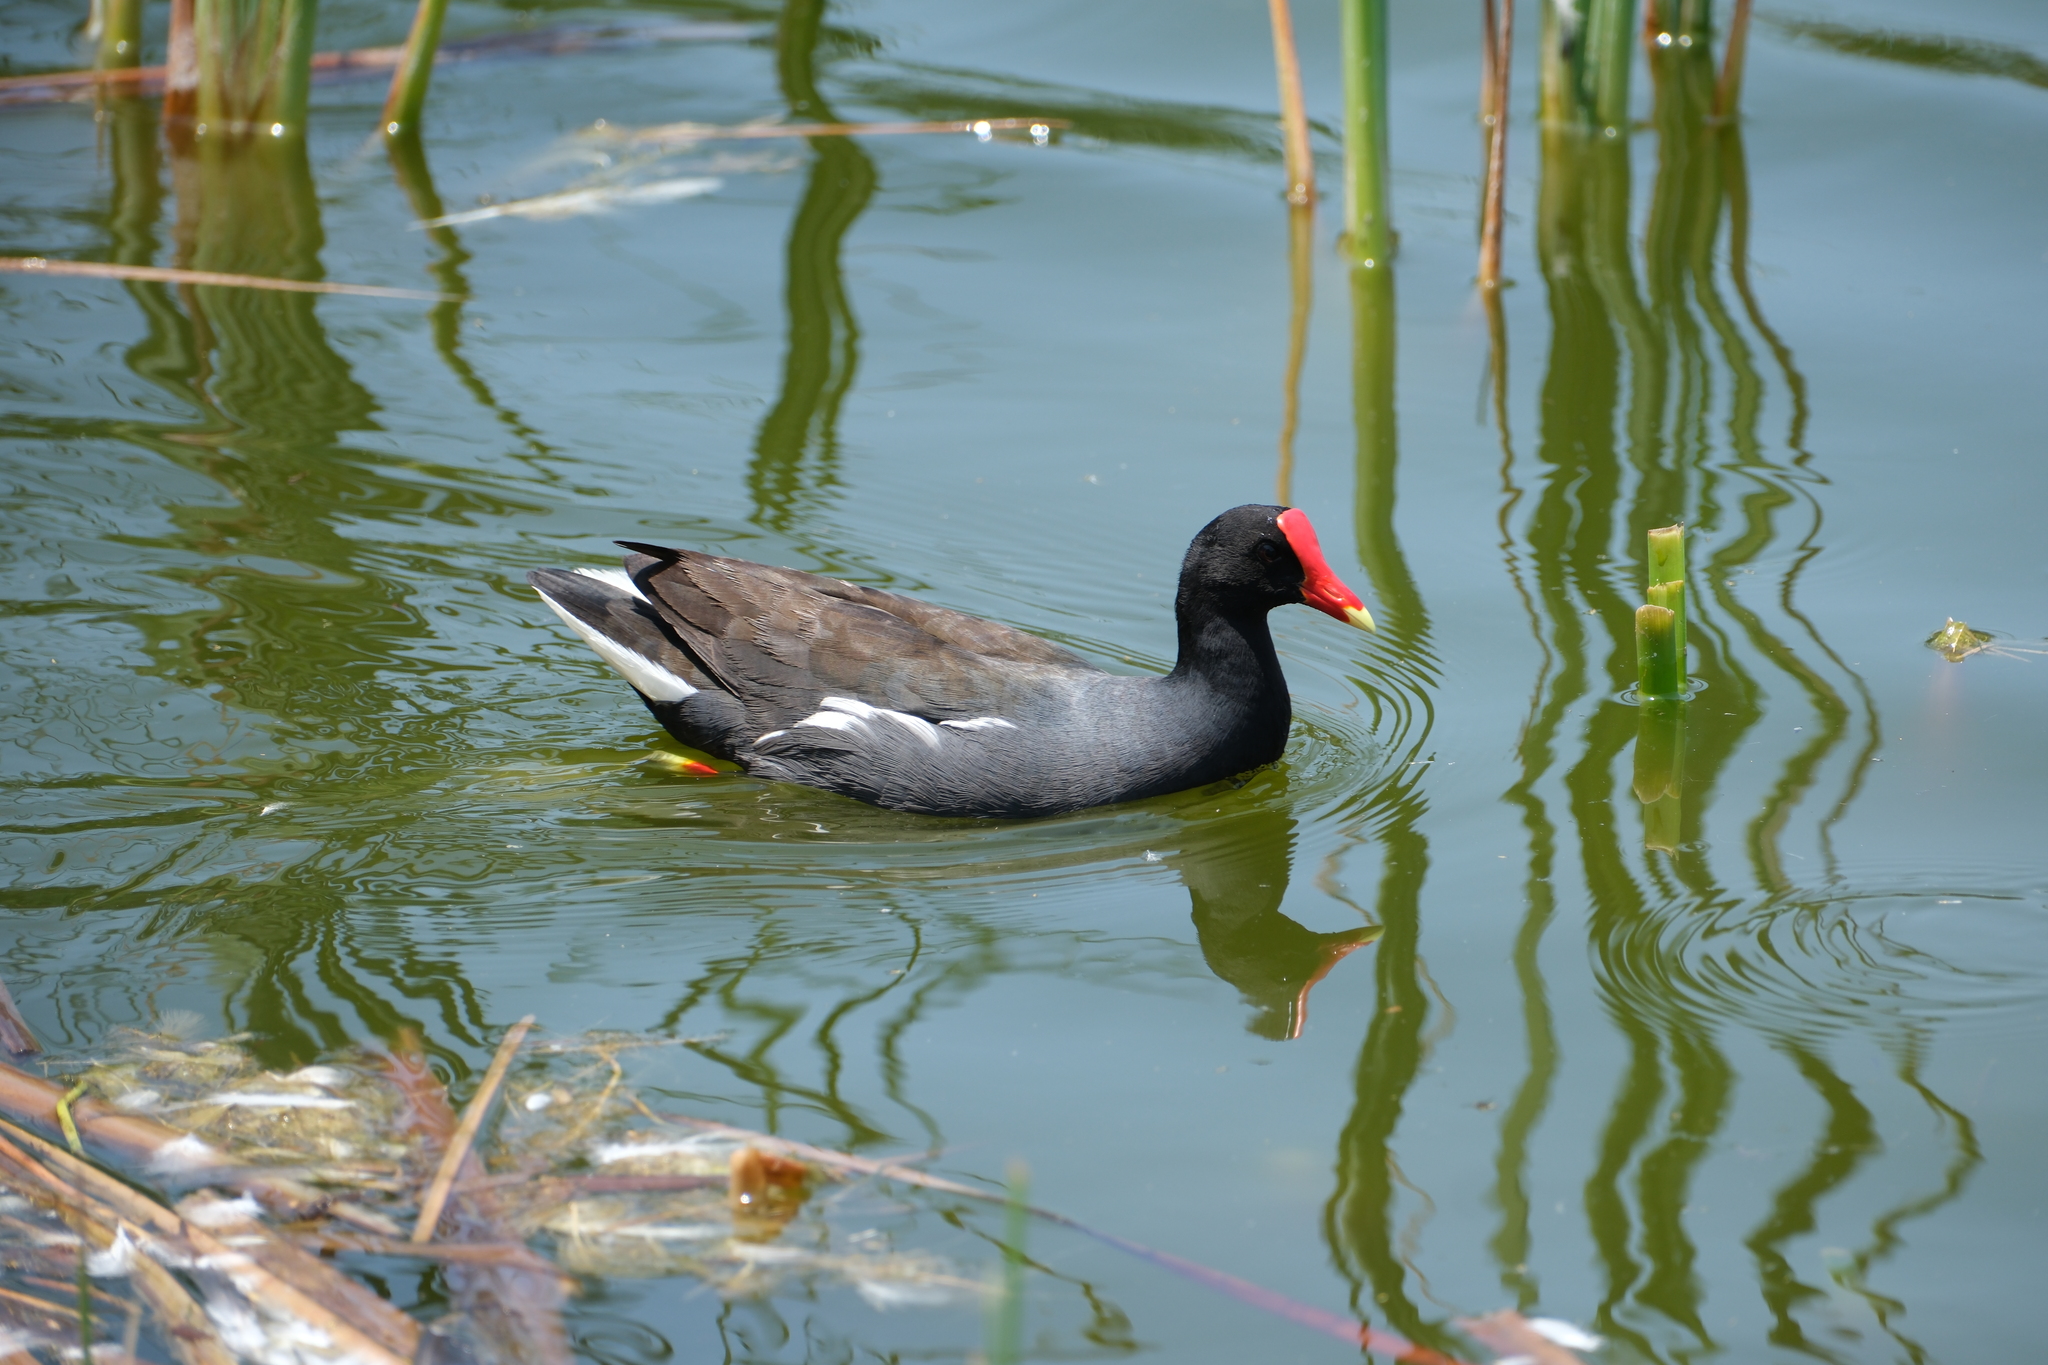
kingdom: Animalia
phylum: Chordata
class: Aves
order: Gruiformes
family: Rallidae
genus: Gallinula
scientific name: Gallinula chloropus
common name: Common moorhen
